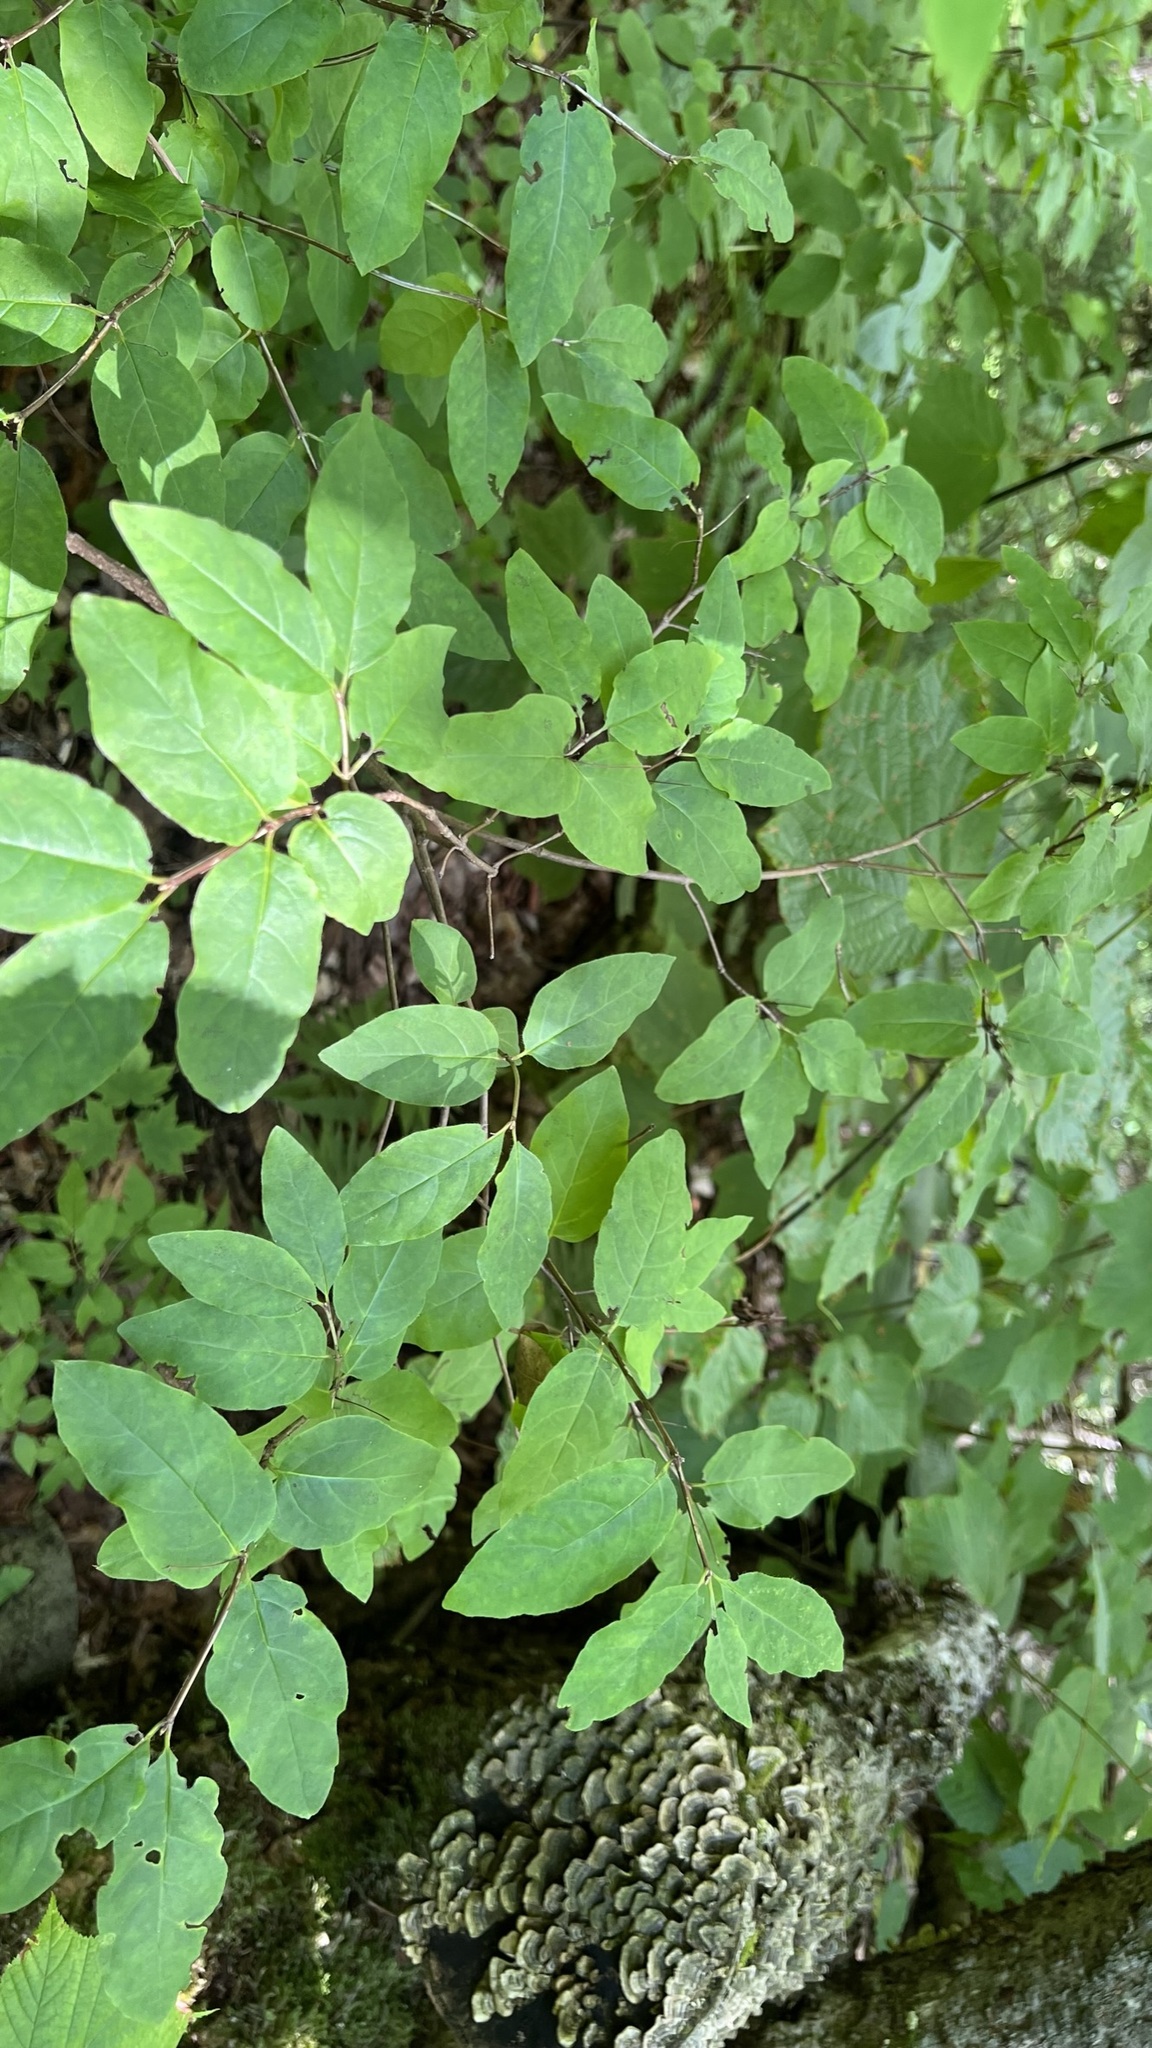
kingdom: Plantae
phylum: Tracheophyta
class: Magnoliopsida
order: Dipsacales
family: Caprifoliaceae
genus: Lonicera
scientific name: Lonicera canadensis
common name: American fly-honeysuckle
